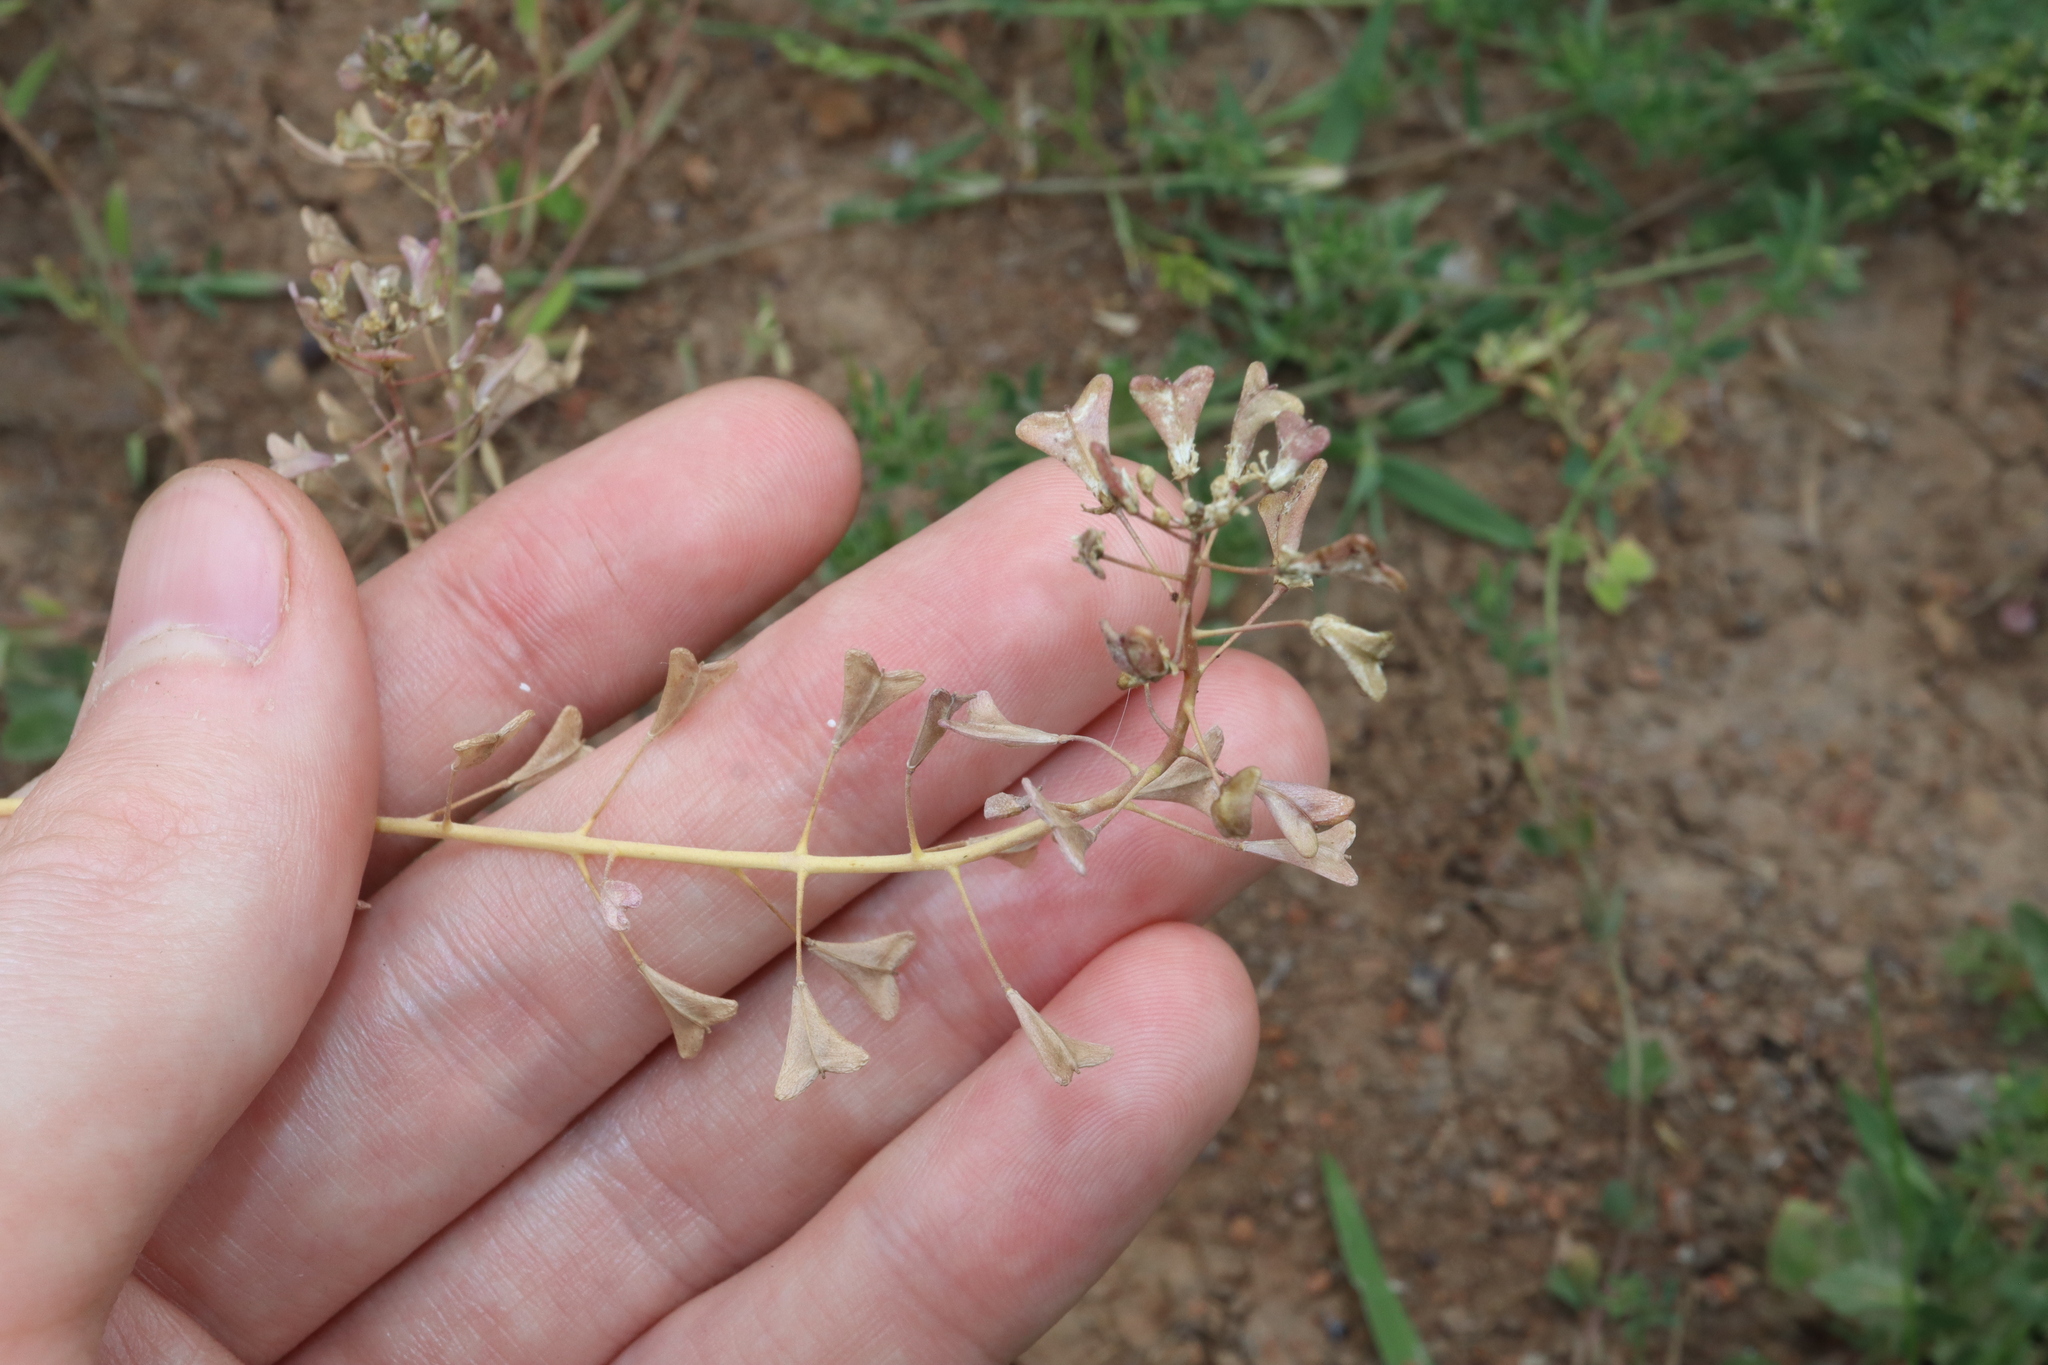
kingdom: Plantae
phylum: Tracheophyta
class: Magnoliopsida
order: Brassicales
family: Brassicaceae
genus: Capsella
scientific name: Capsella bursa-pastoris
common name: Shepherd's purse
